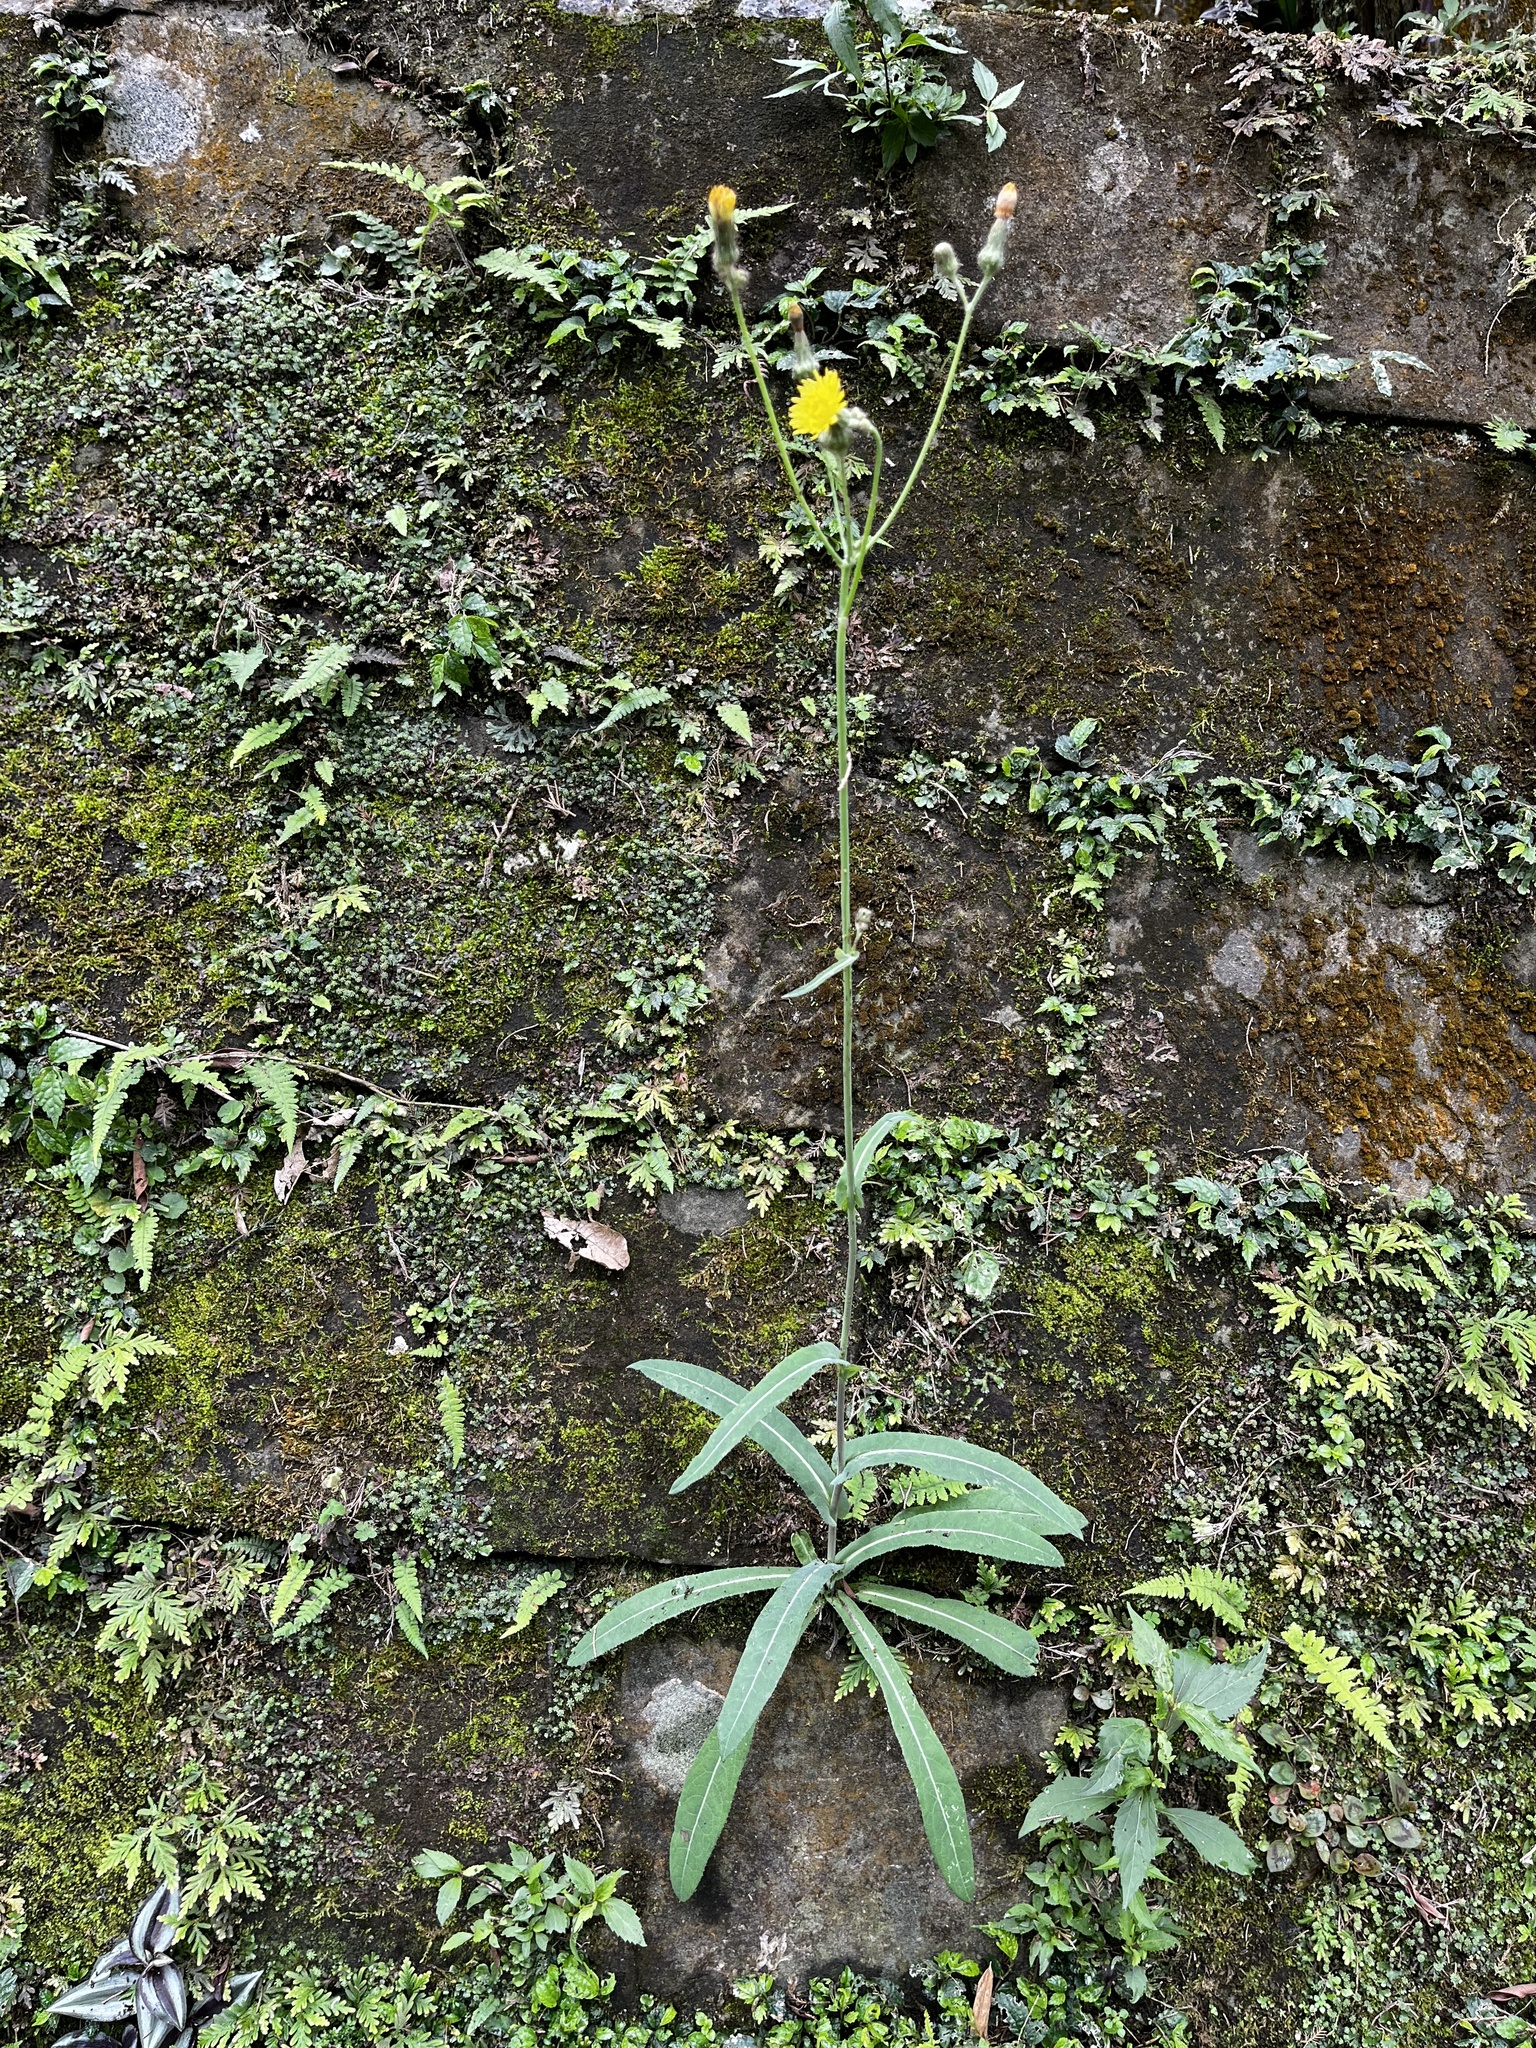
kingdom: Plantae
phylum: Tracheophyta
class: Magnoliopsida
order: Asterales
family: Asteraceae
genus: Sonchus
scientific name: Sonchus arvensis
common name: Perennial sow-thistle
